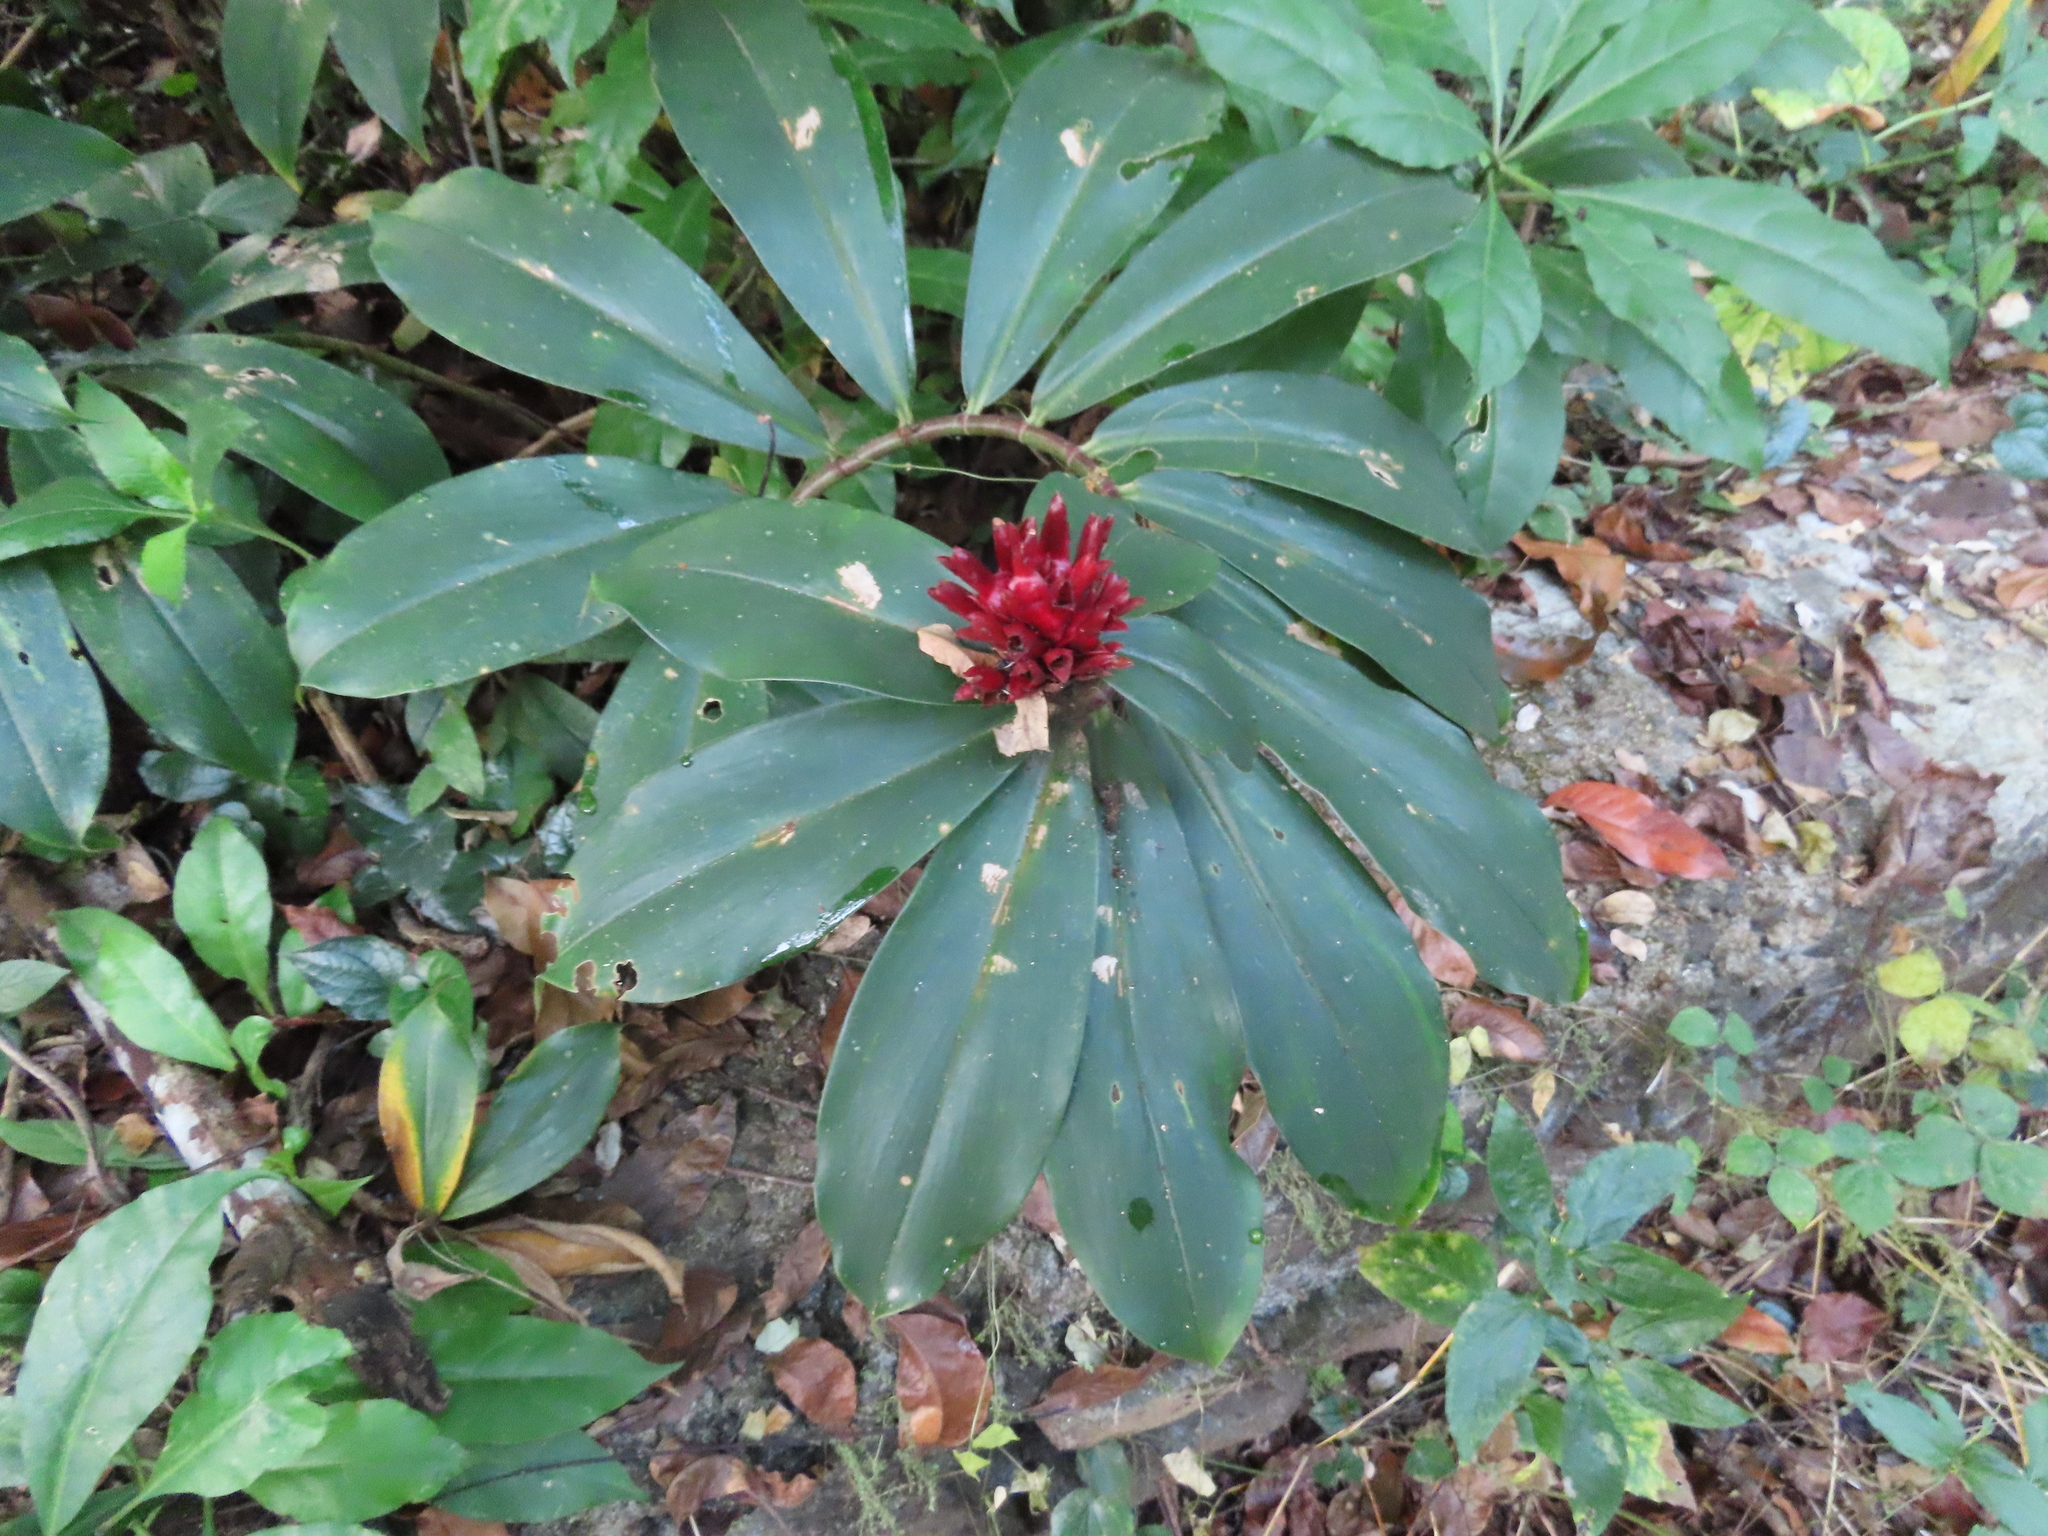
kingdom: Plantae
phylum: Tracheophyta
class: Liliopsida
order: Zingiberales
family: Costaceae
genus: Hellenia
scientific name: Hellenia speciosa
